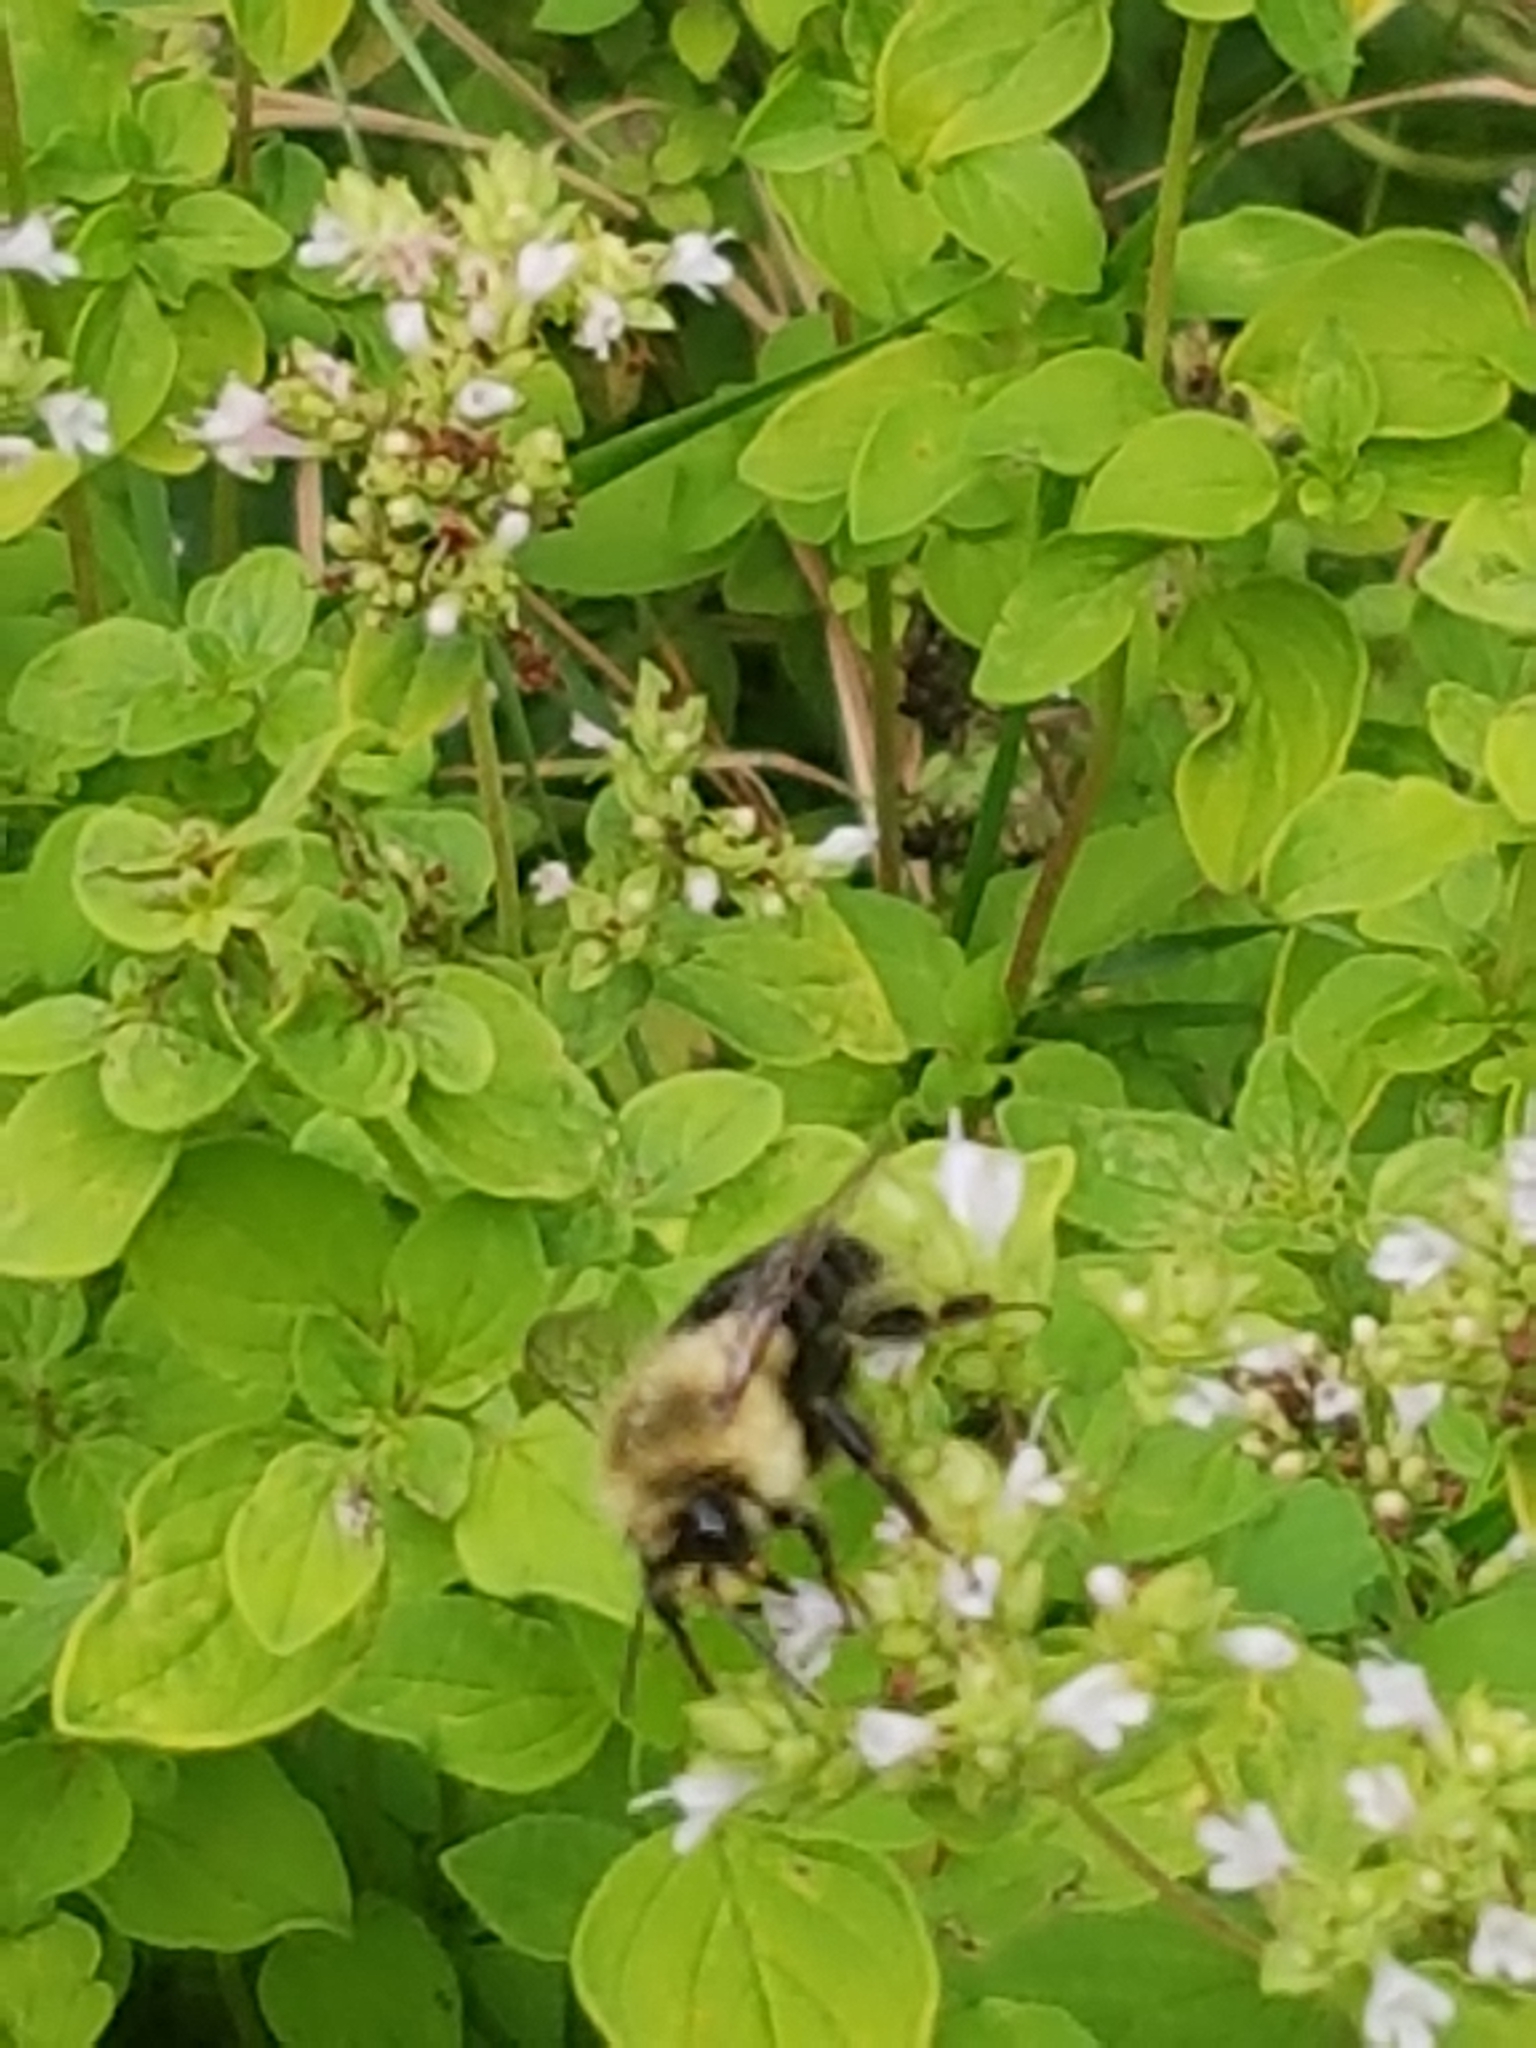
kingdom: Animalia
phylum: Arthropoda
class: Insecta
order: Hymenoptera
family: Apidae
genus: Bombus
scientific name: Bombus impatiens
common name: Common eastern bumble bee
